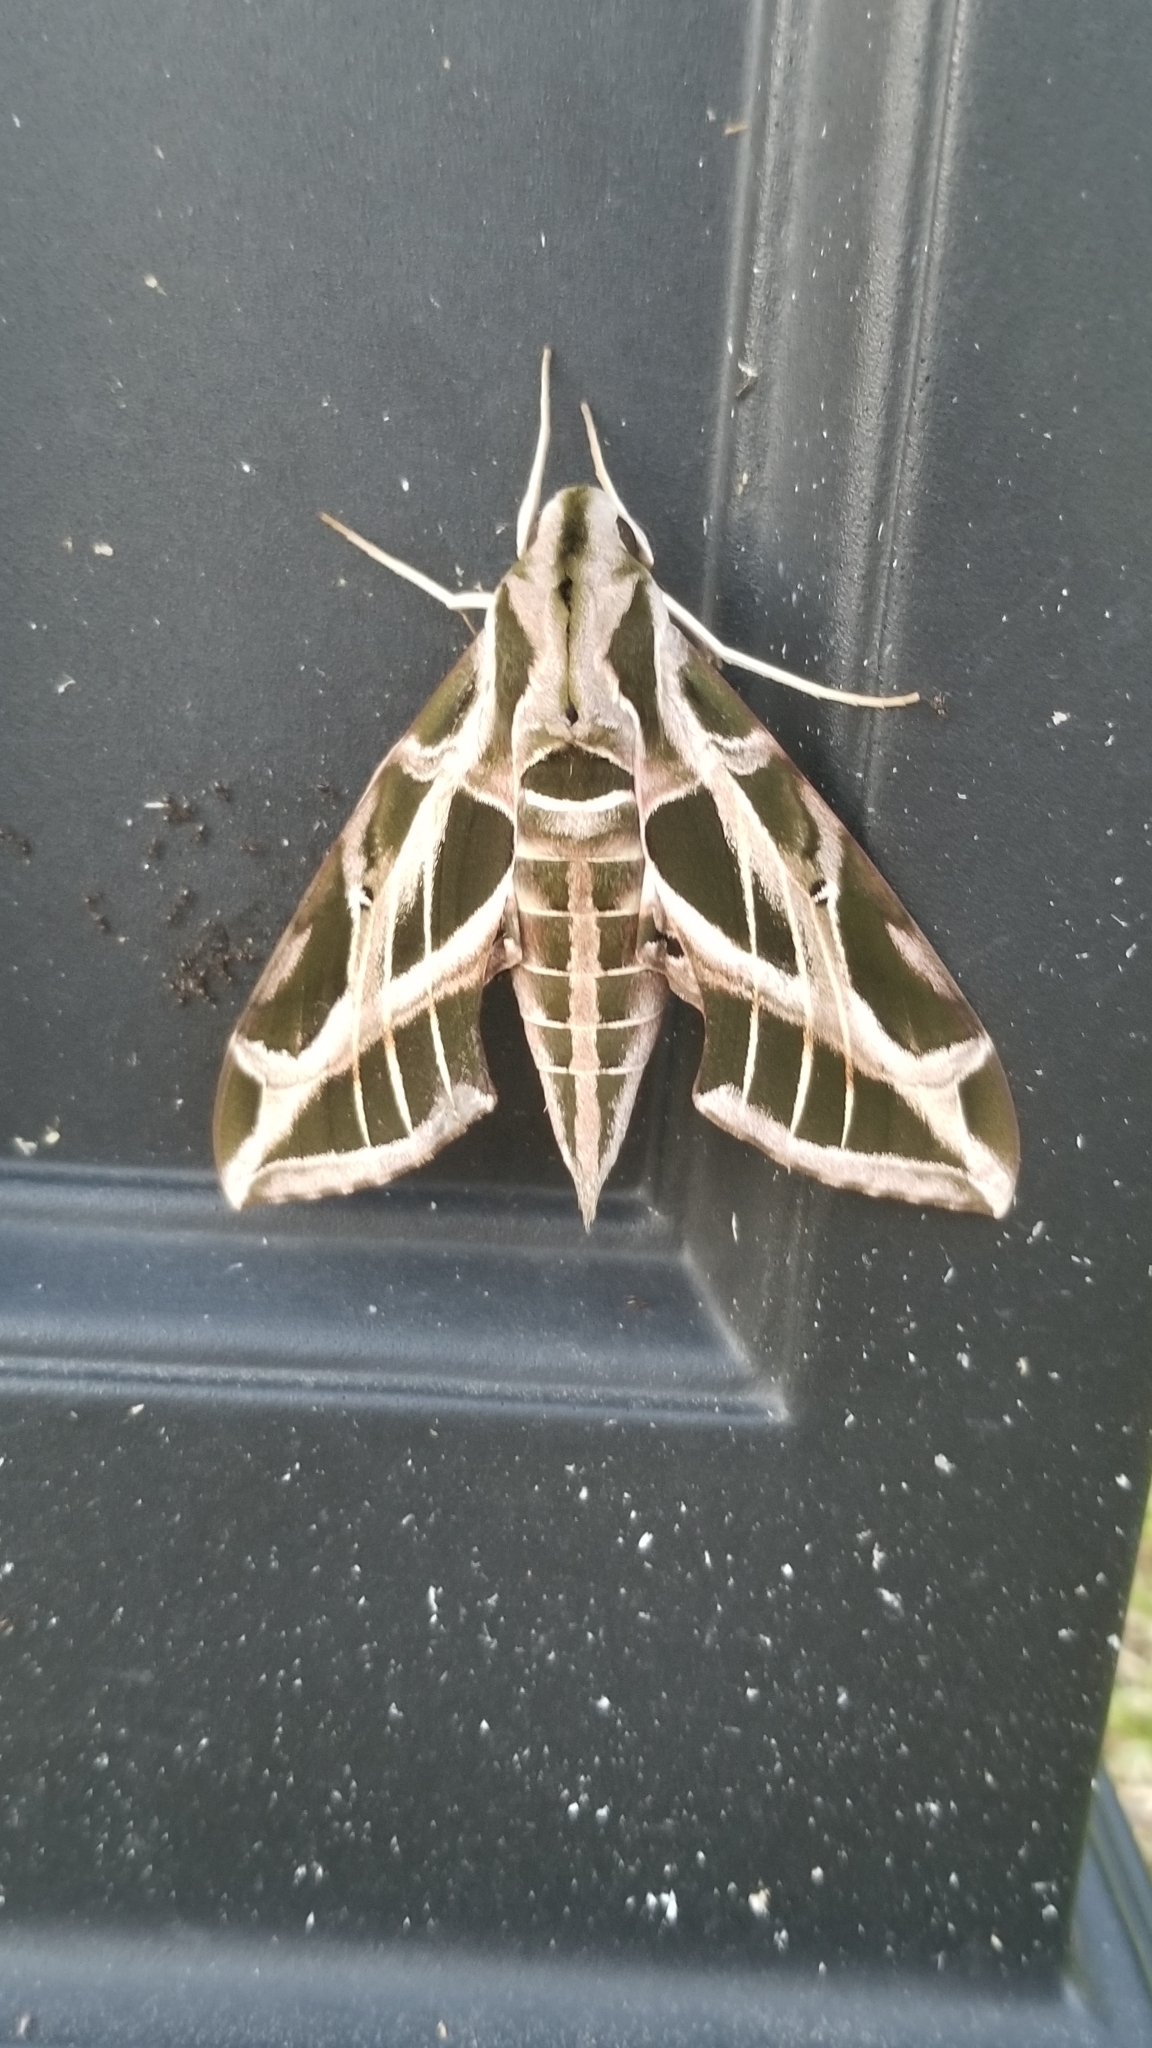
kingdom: Animalia
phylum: Arthropoda
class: Insecta
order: Lepidoptera
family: Sphingidae
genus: Eumorpha
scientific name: Eumorpha vitis
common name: Vine sphinx
